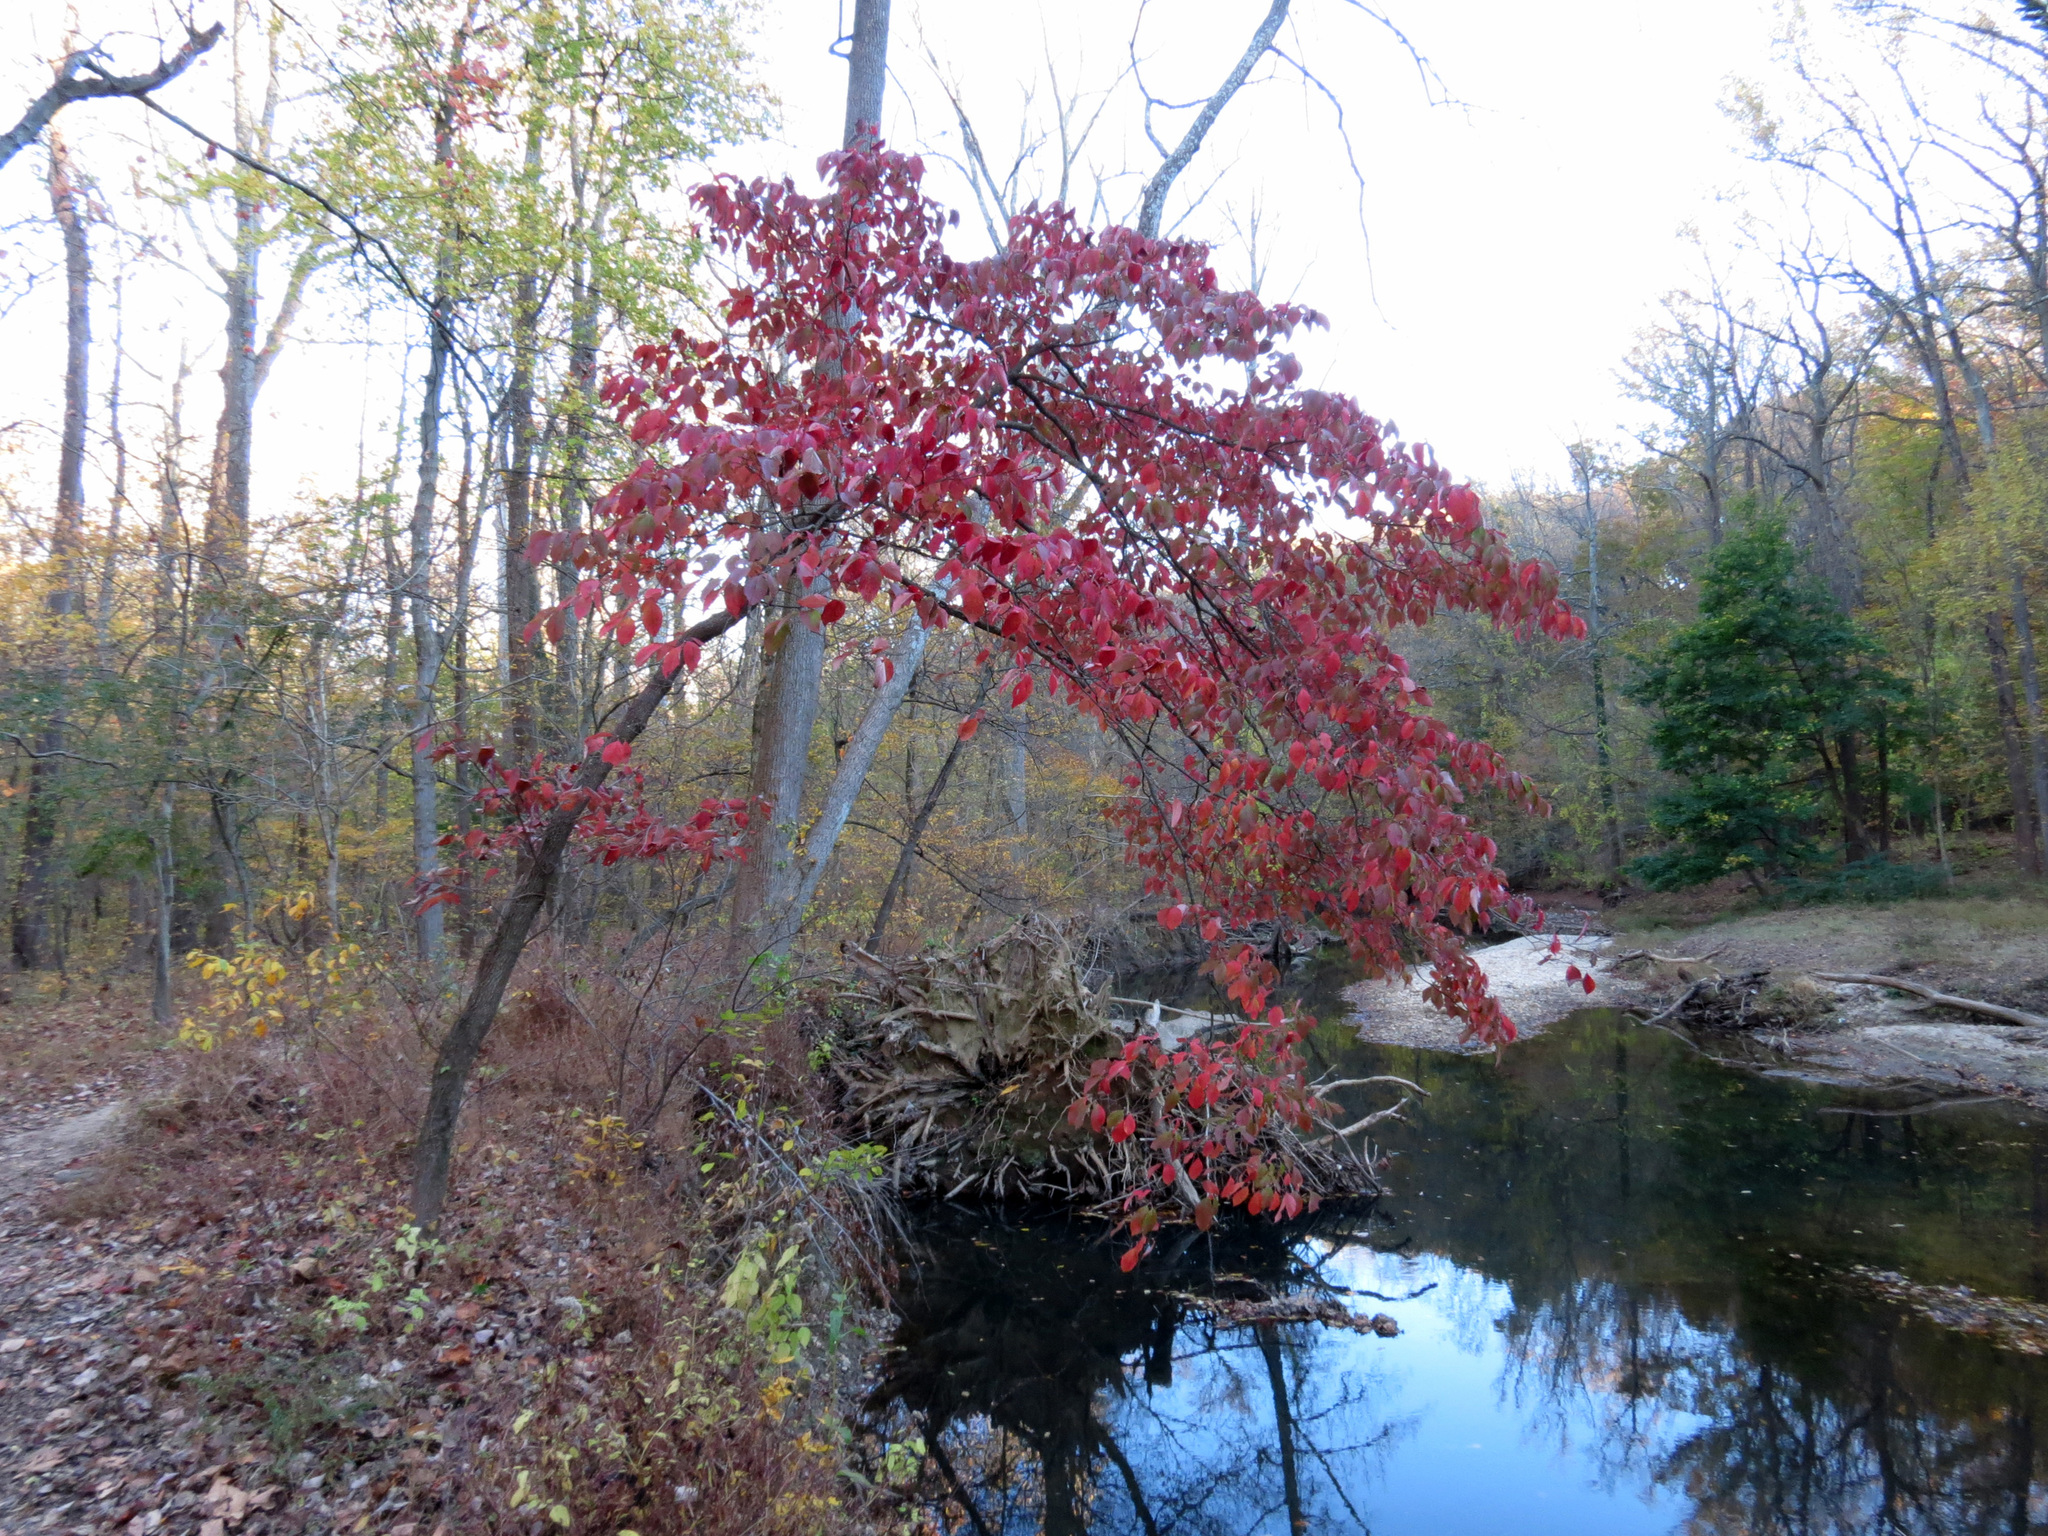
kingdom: Plantae
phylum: Tracheophyta
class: Magnoliopsida
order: Cornales
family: Cornaceae
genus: Cornus
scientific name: Cornus florida
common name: Flowering dogwood
